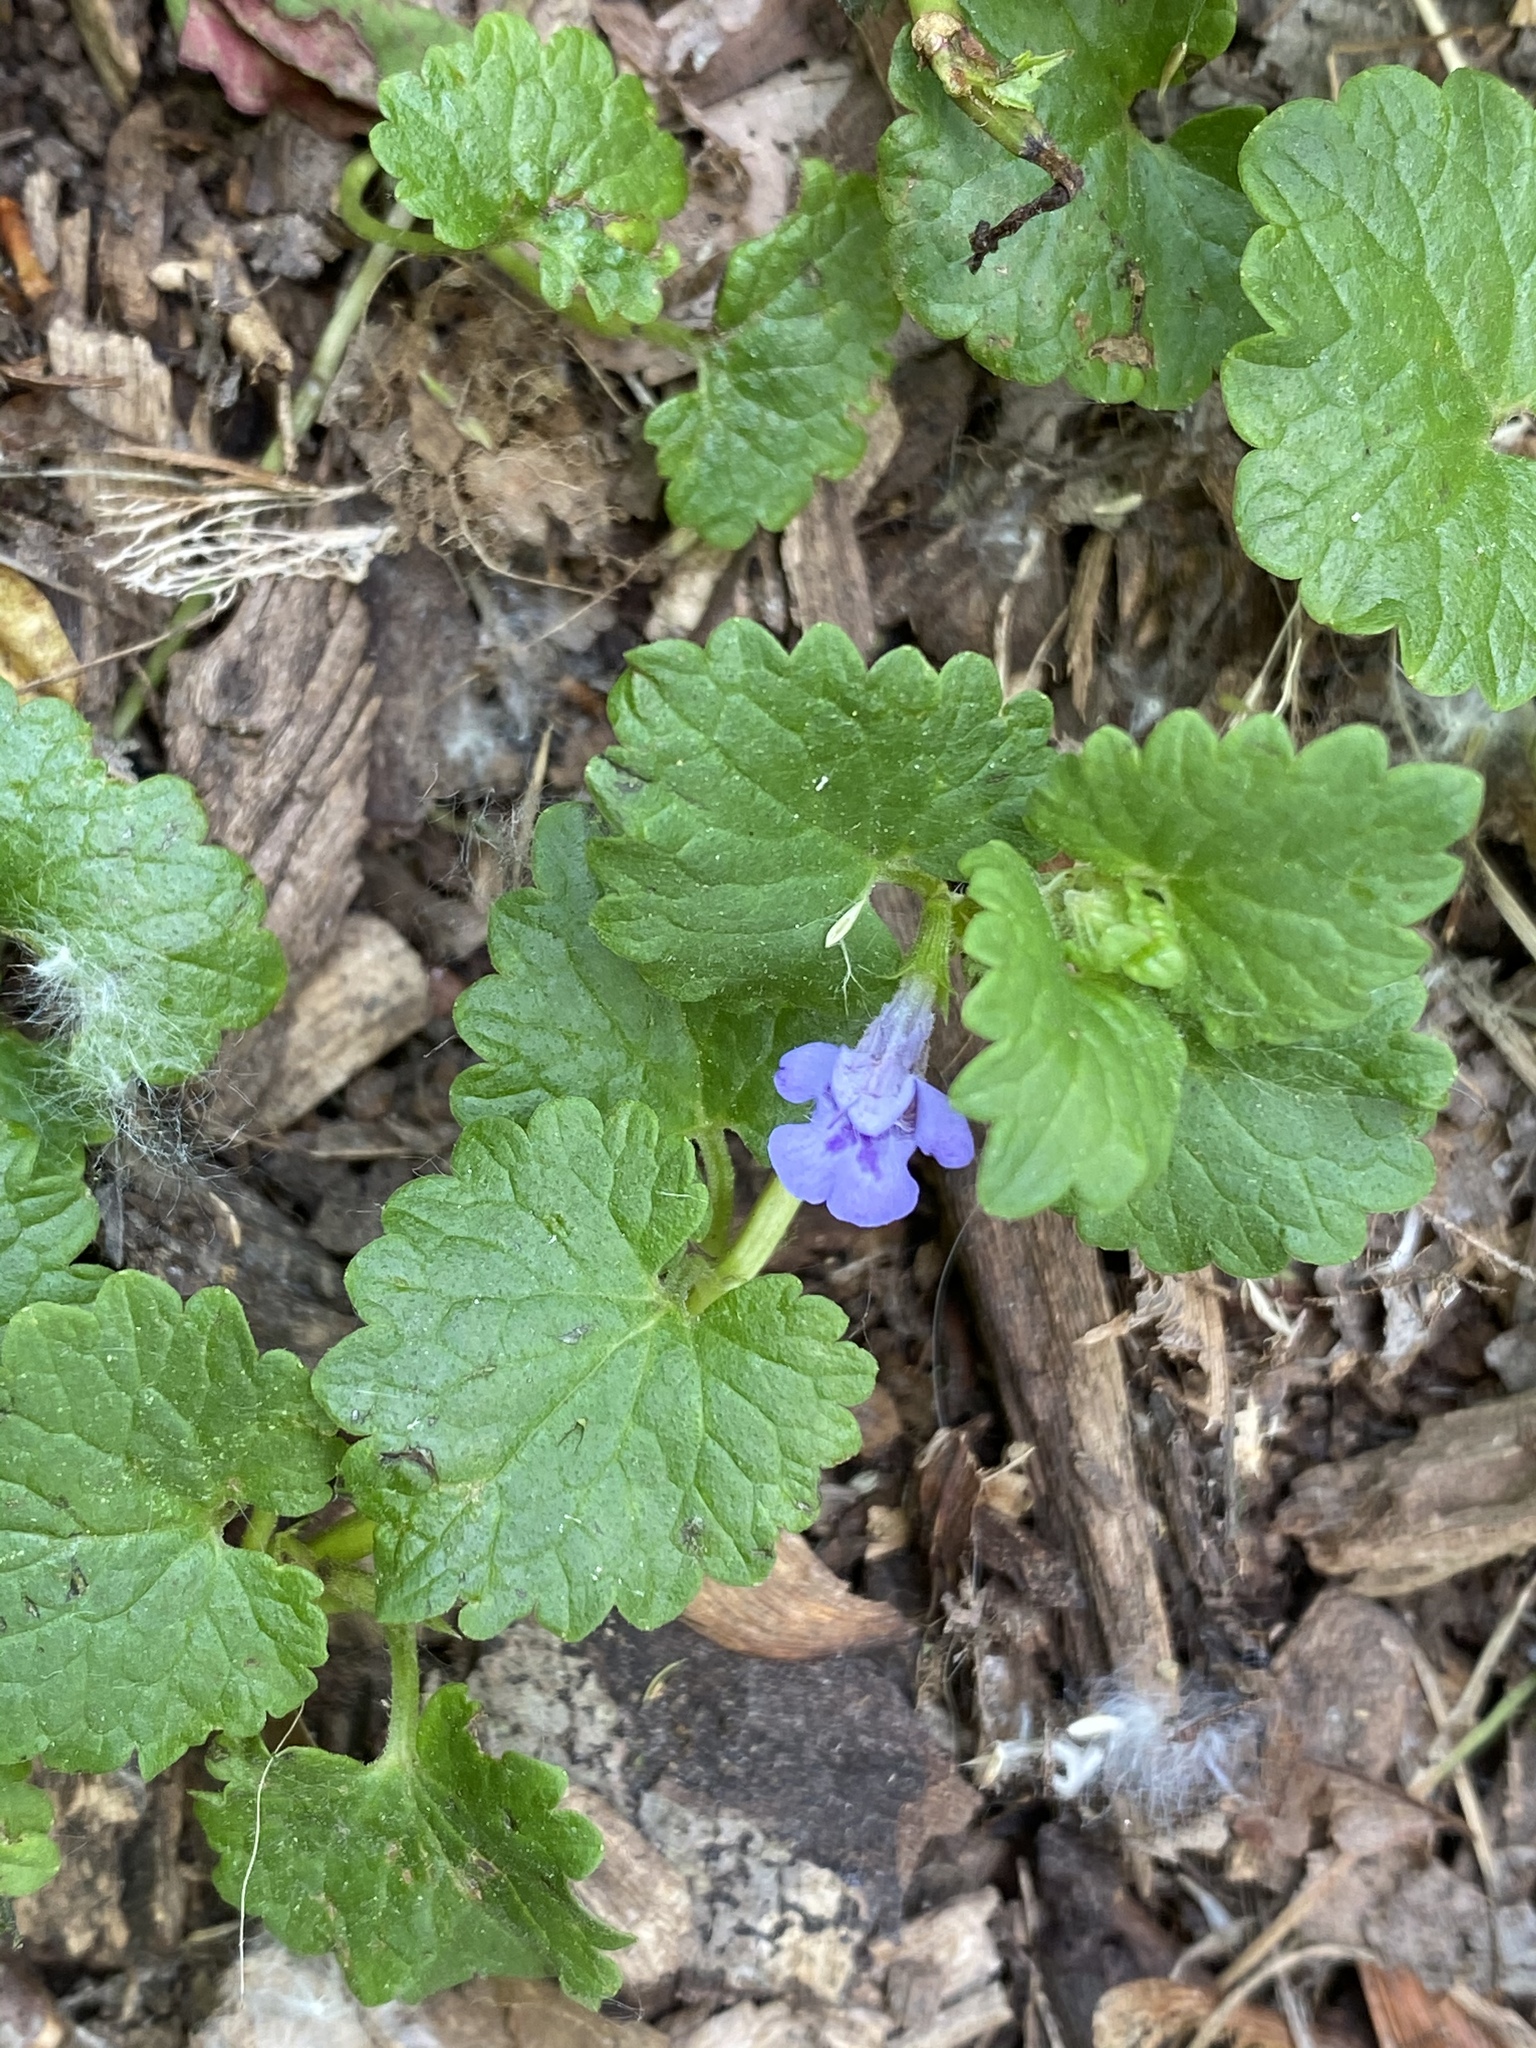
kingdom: Plantae
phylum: Tracheophyta
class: Magnoliopsida
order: Lamiales
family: Lamiaceae
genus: Glechoma
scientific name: Glechoma hederacea
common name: Ground ivy
